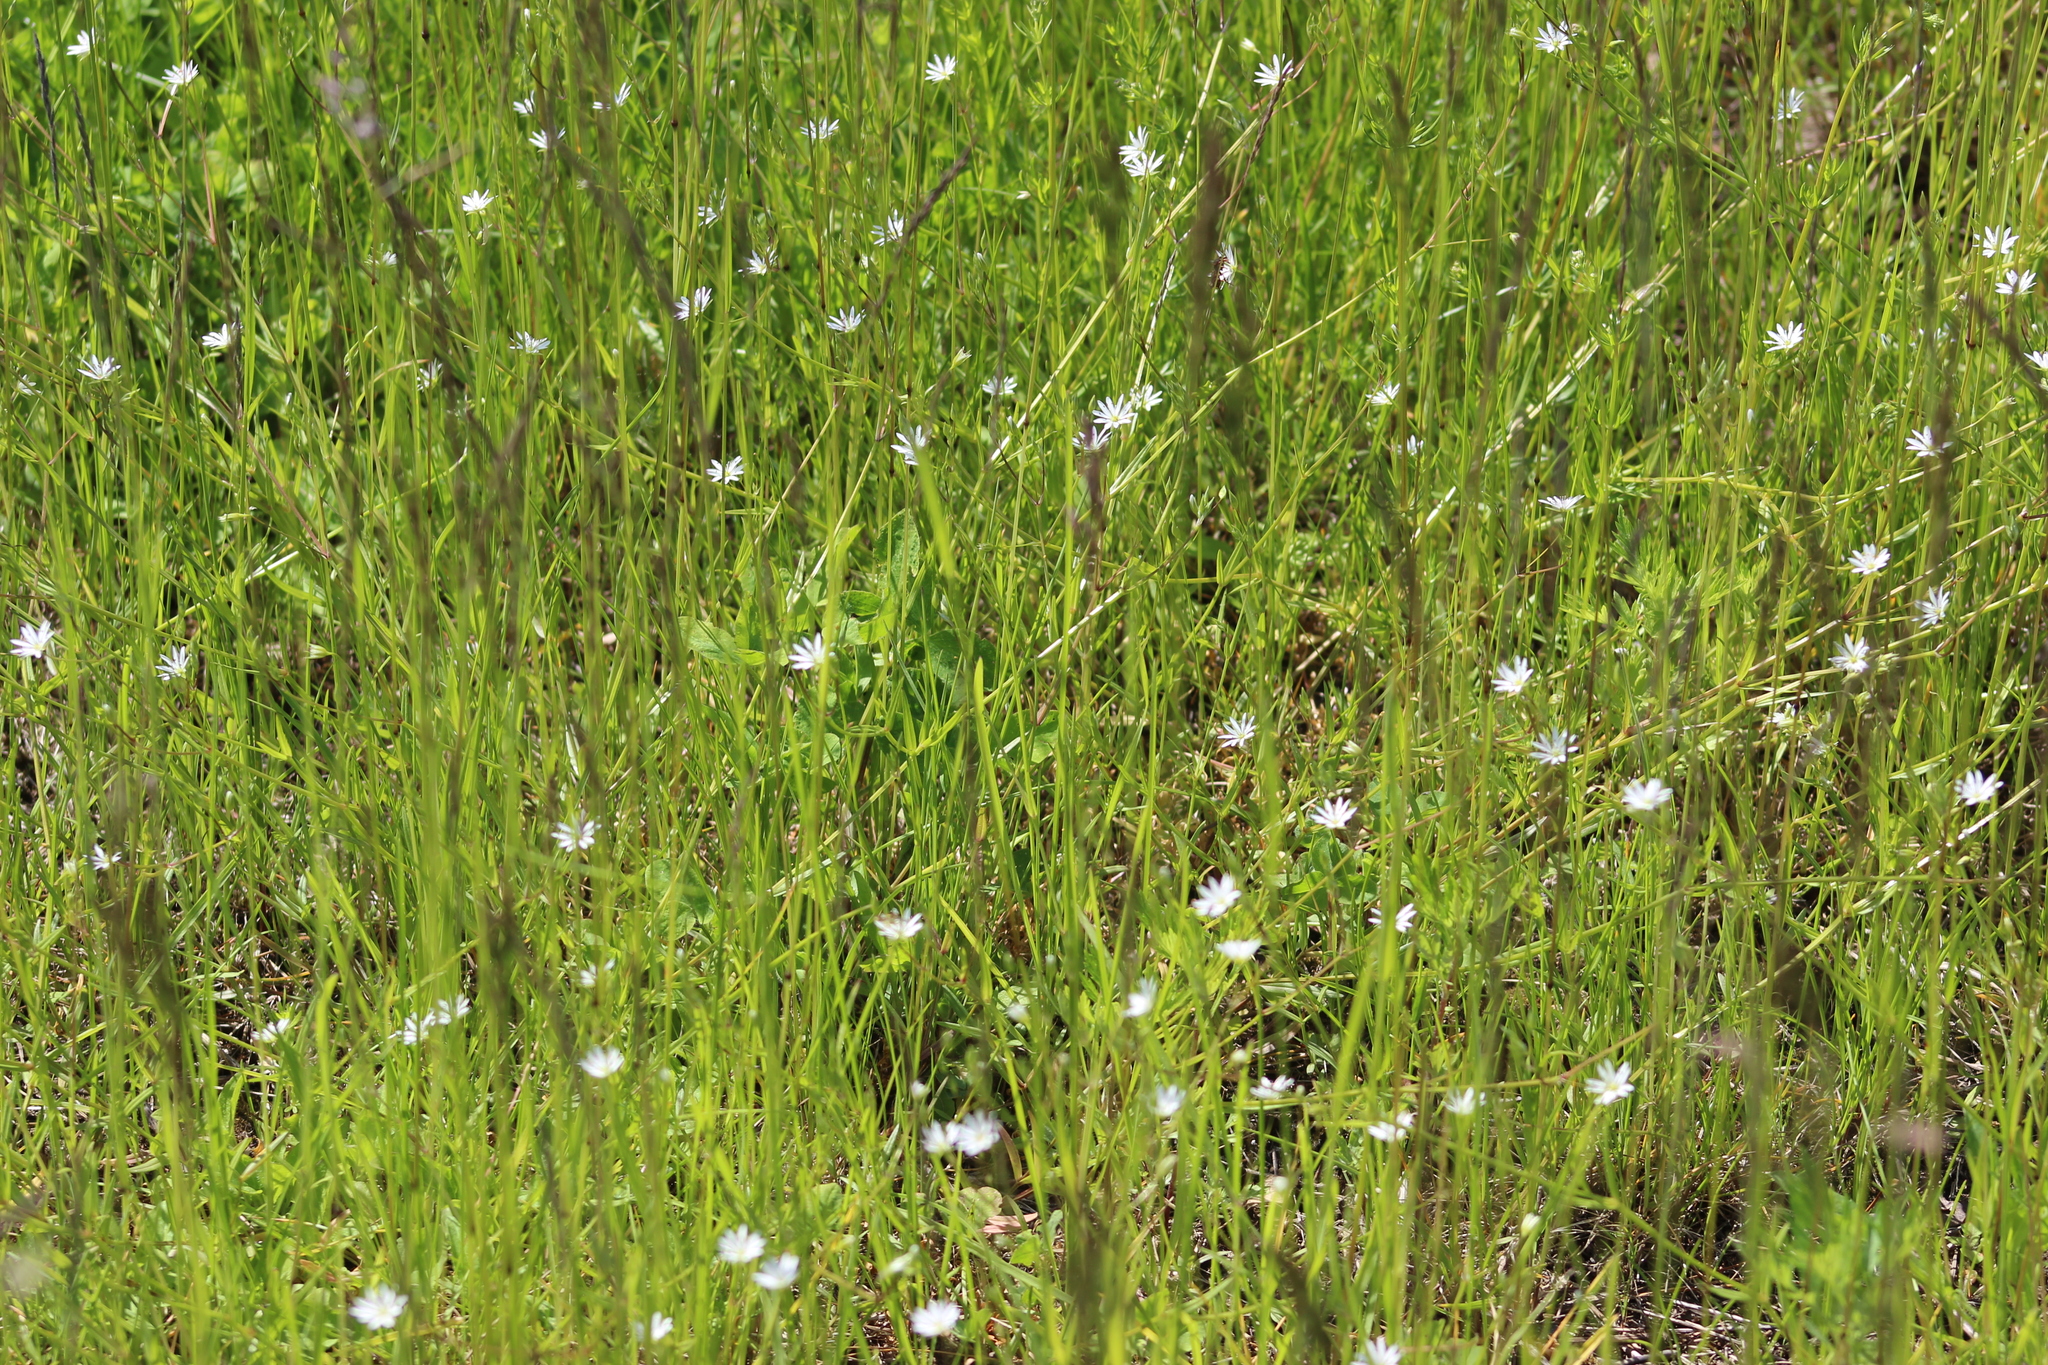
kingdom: Plantae
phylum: Tracheophyta
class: Magnoliopsida
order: Caryophyllales
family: Caryophyllaceae
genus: Stellaria
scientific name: Stellaria graminea
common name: Grass-like starwort
